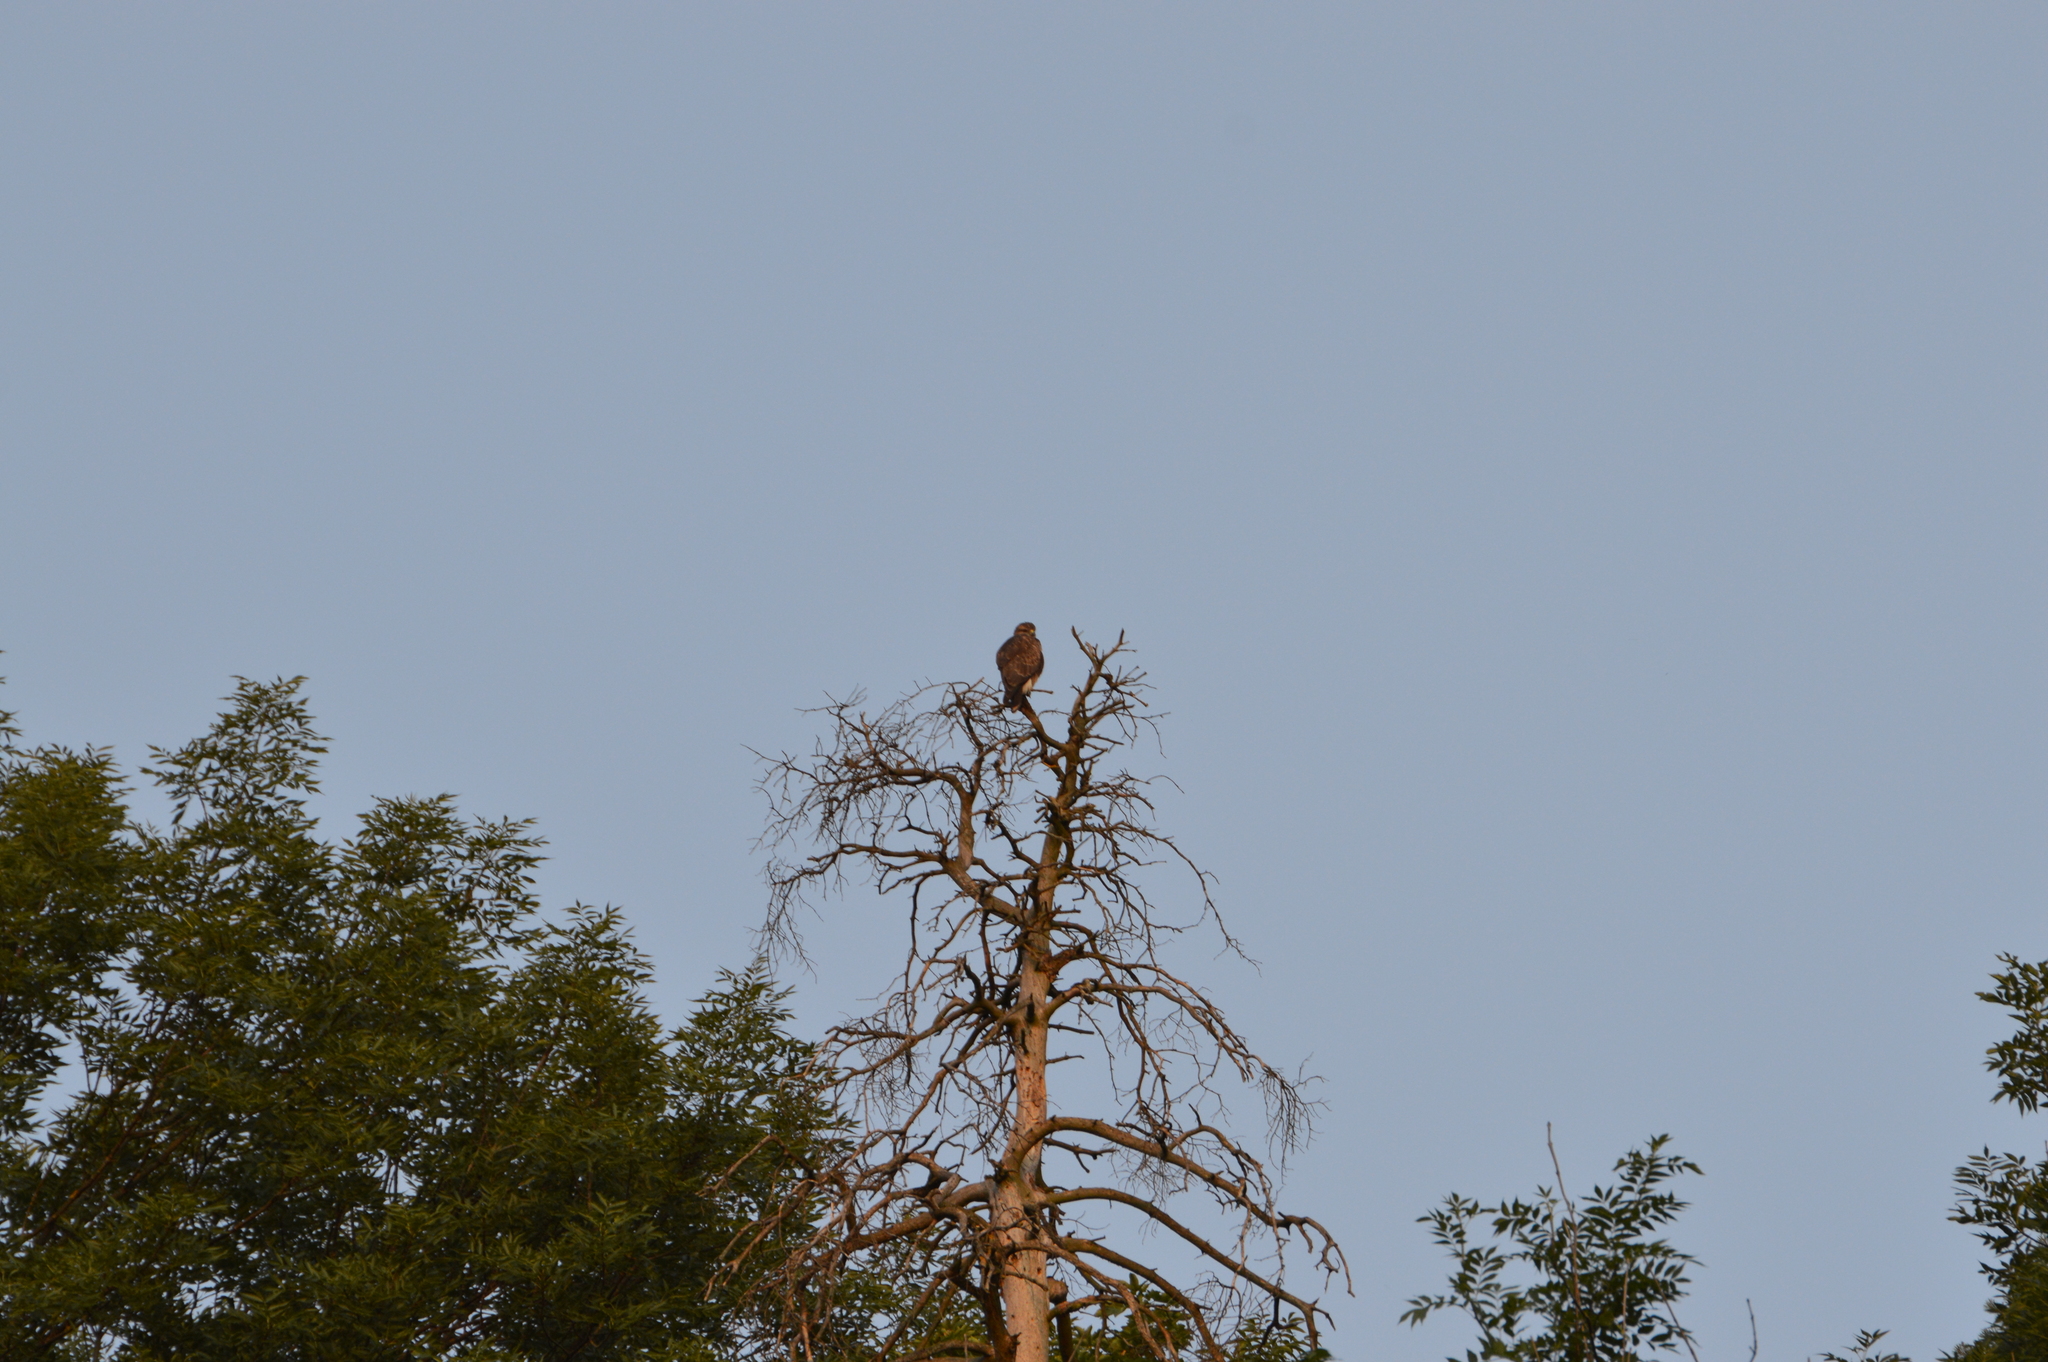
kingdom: Animalia
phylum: Chordata
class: Aves
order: Accipitriformes
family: Accipitridae
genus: Buteo
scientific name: Buteo buteo
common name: Common buzzard
